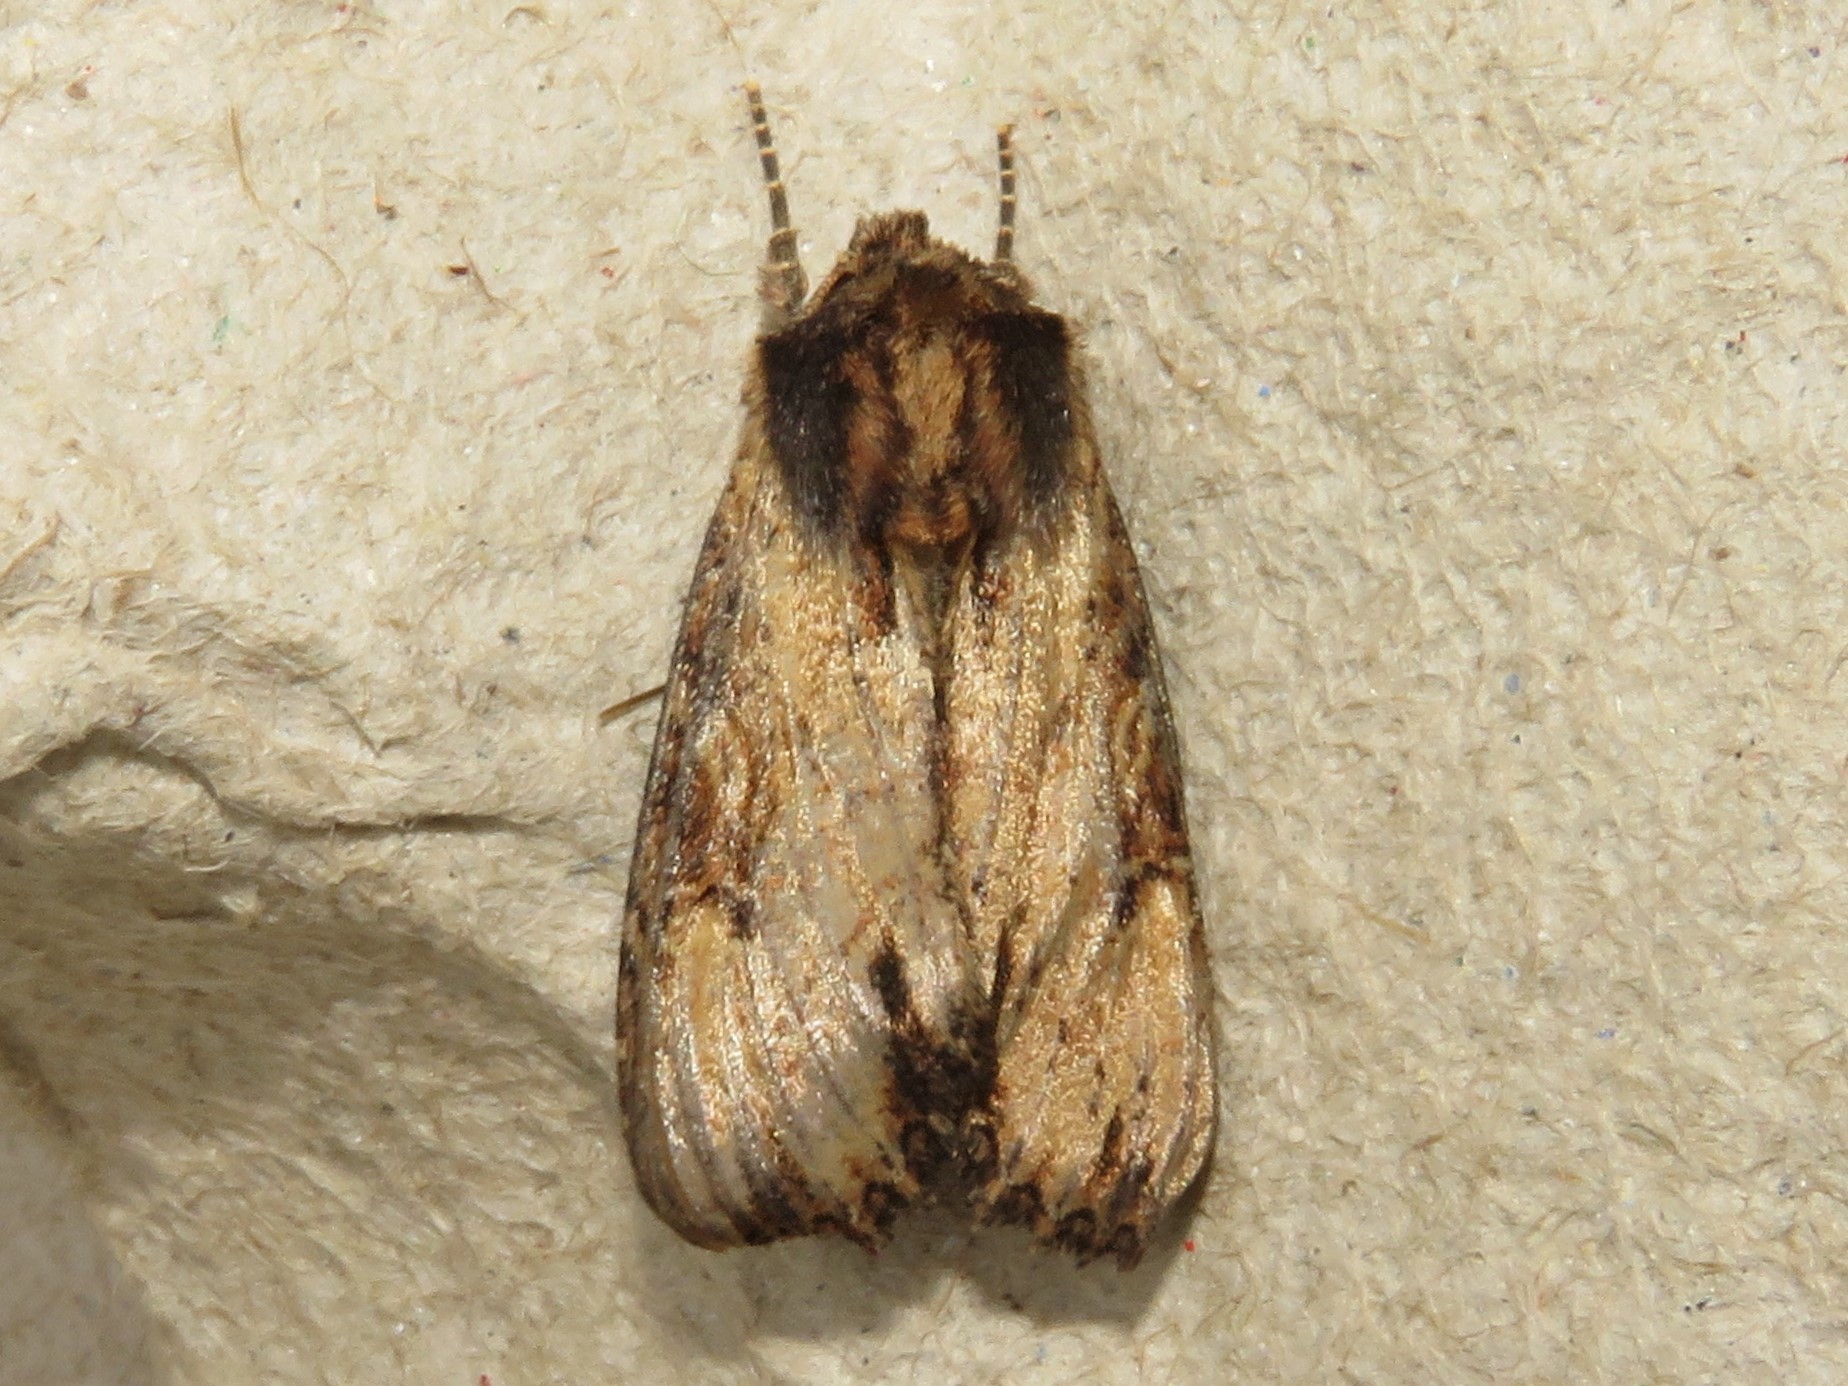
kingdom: Animalia
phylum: Arthropoda
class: Insecta
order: Lepidoptera
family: Noctuidae
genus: Apamea
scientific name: Apamea vultuosa
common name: Airy apamea moth
